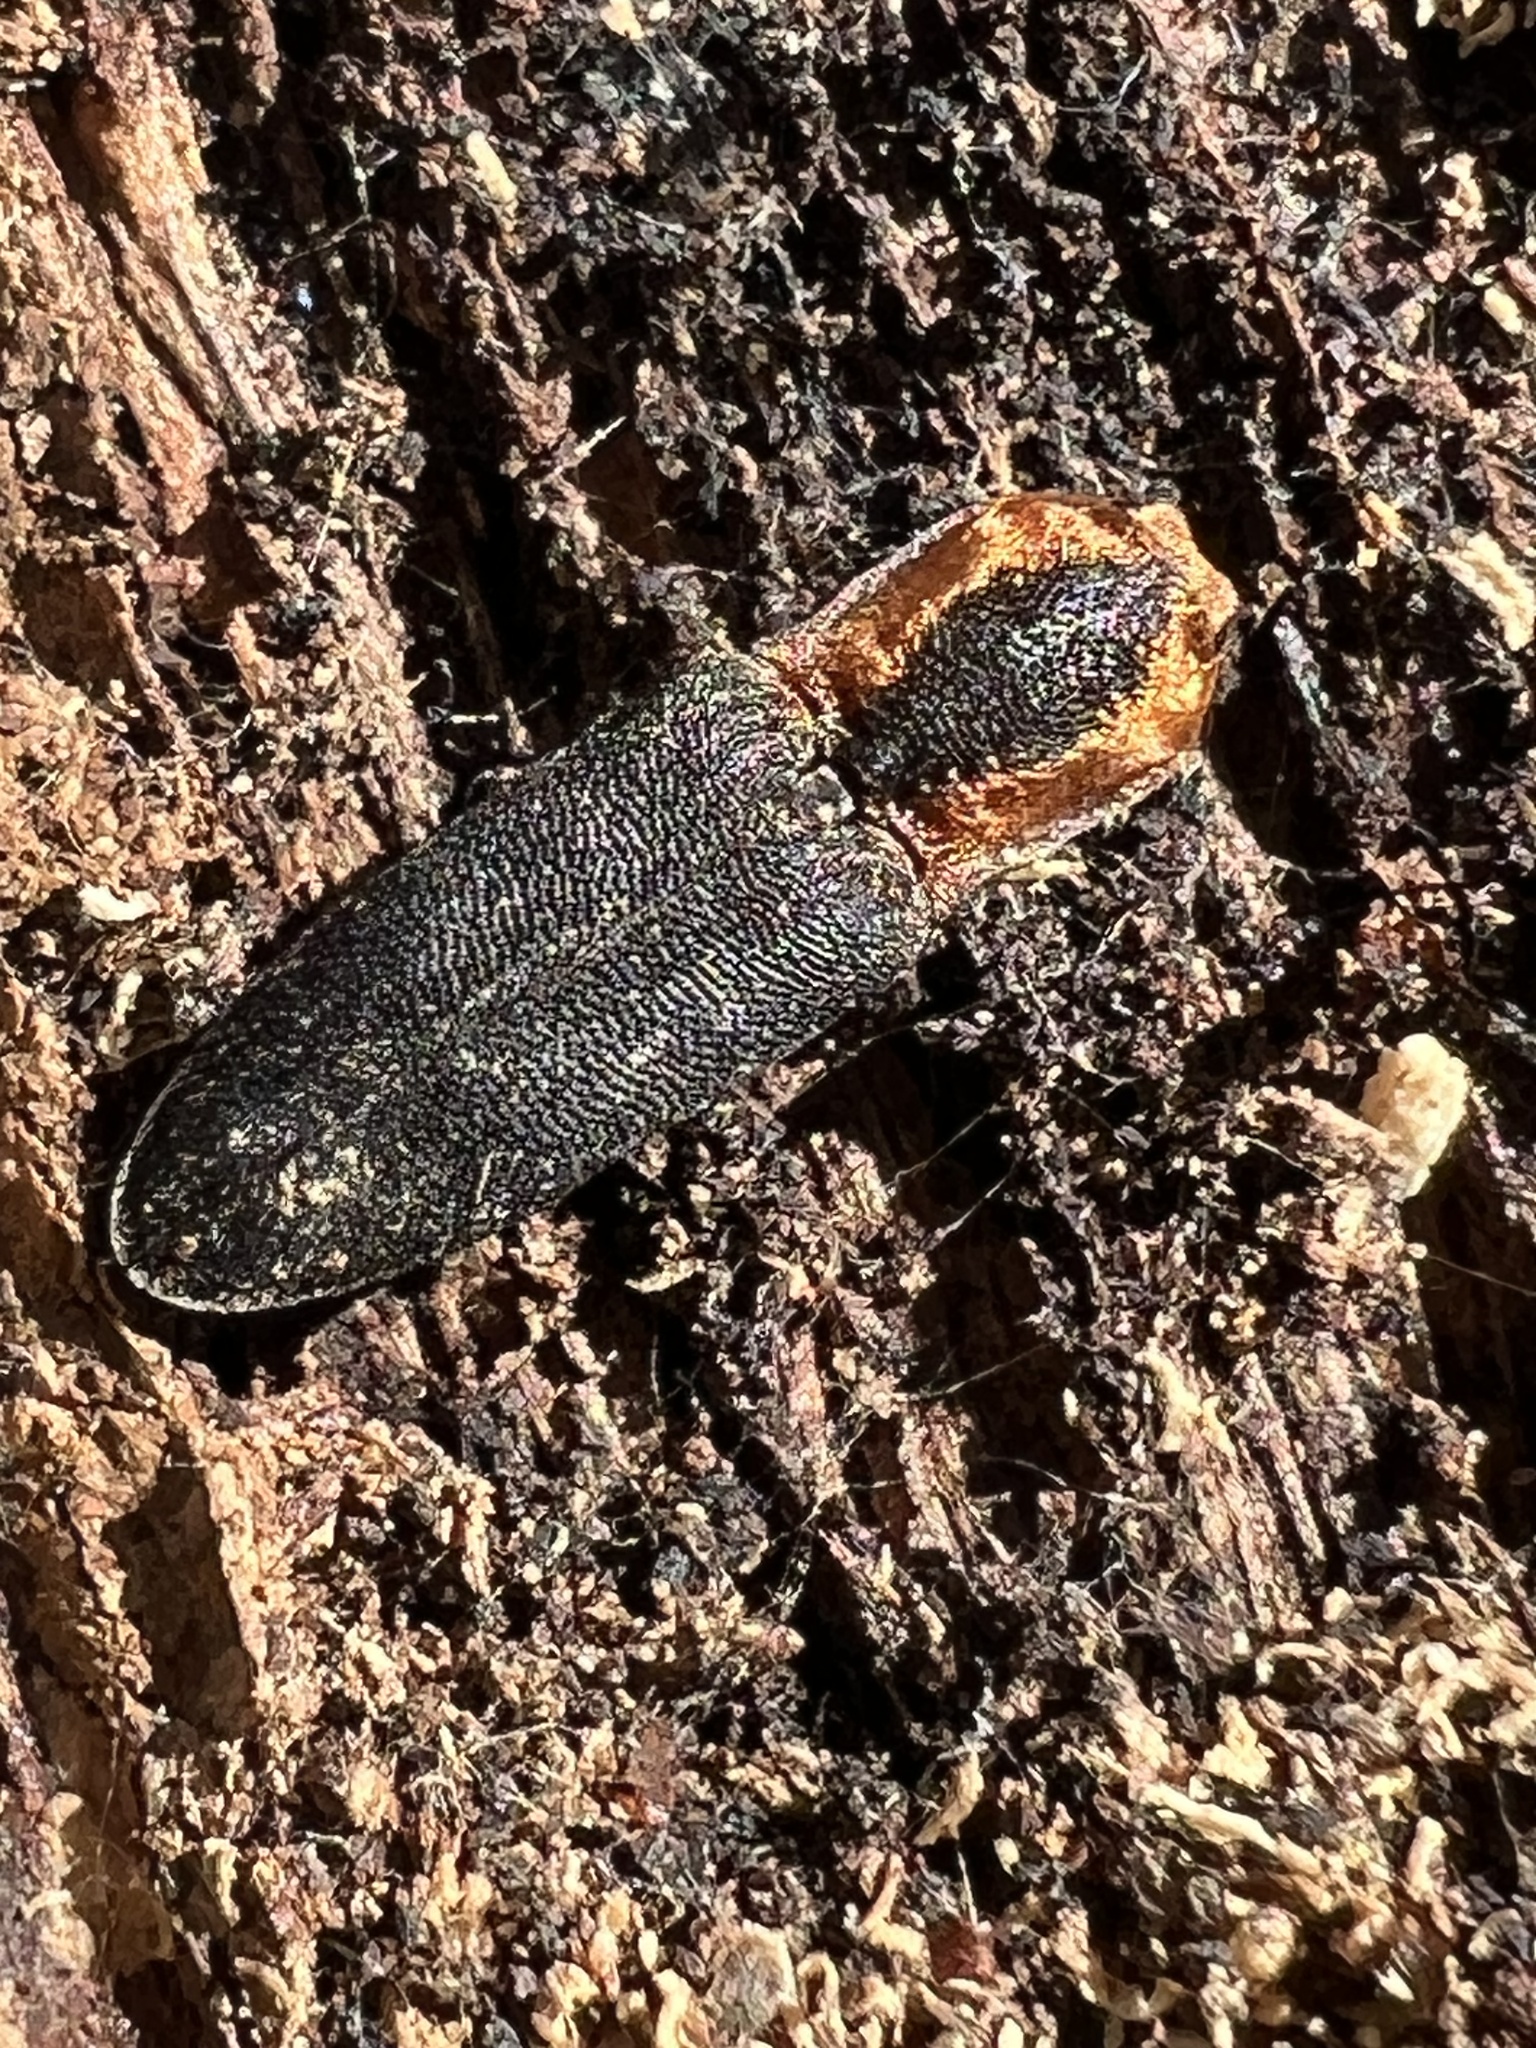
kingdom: Animalia
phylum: Arthropoda
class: Insecta
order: Coleoptera
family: Elateridae
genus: Lacon
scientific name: Lacon discoideus
